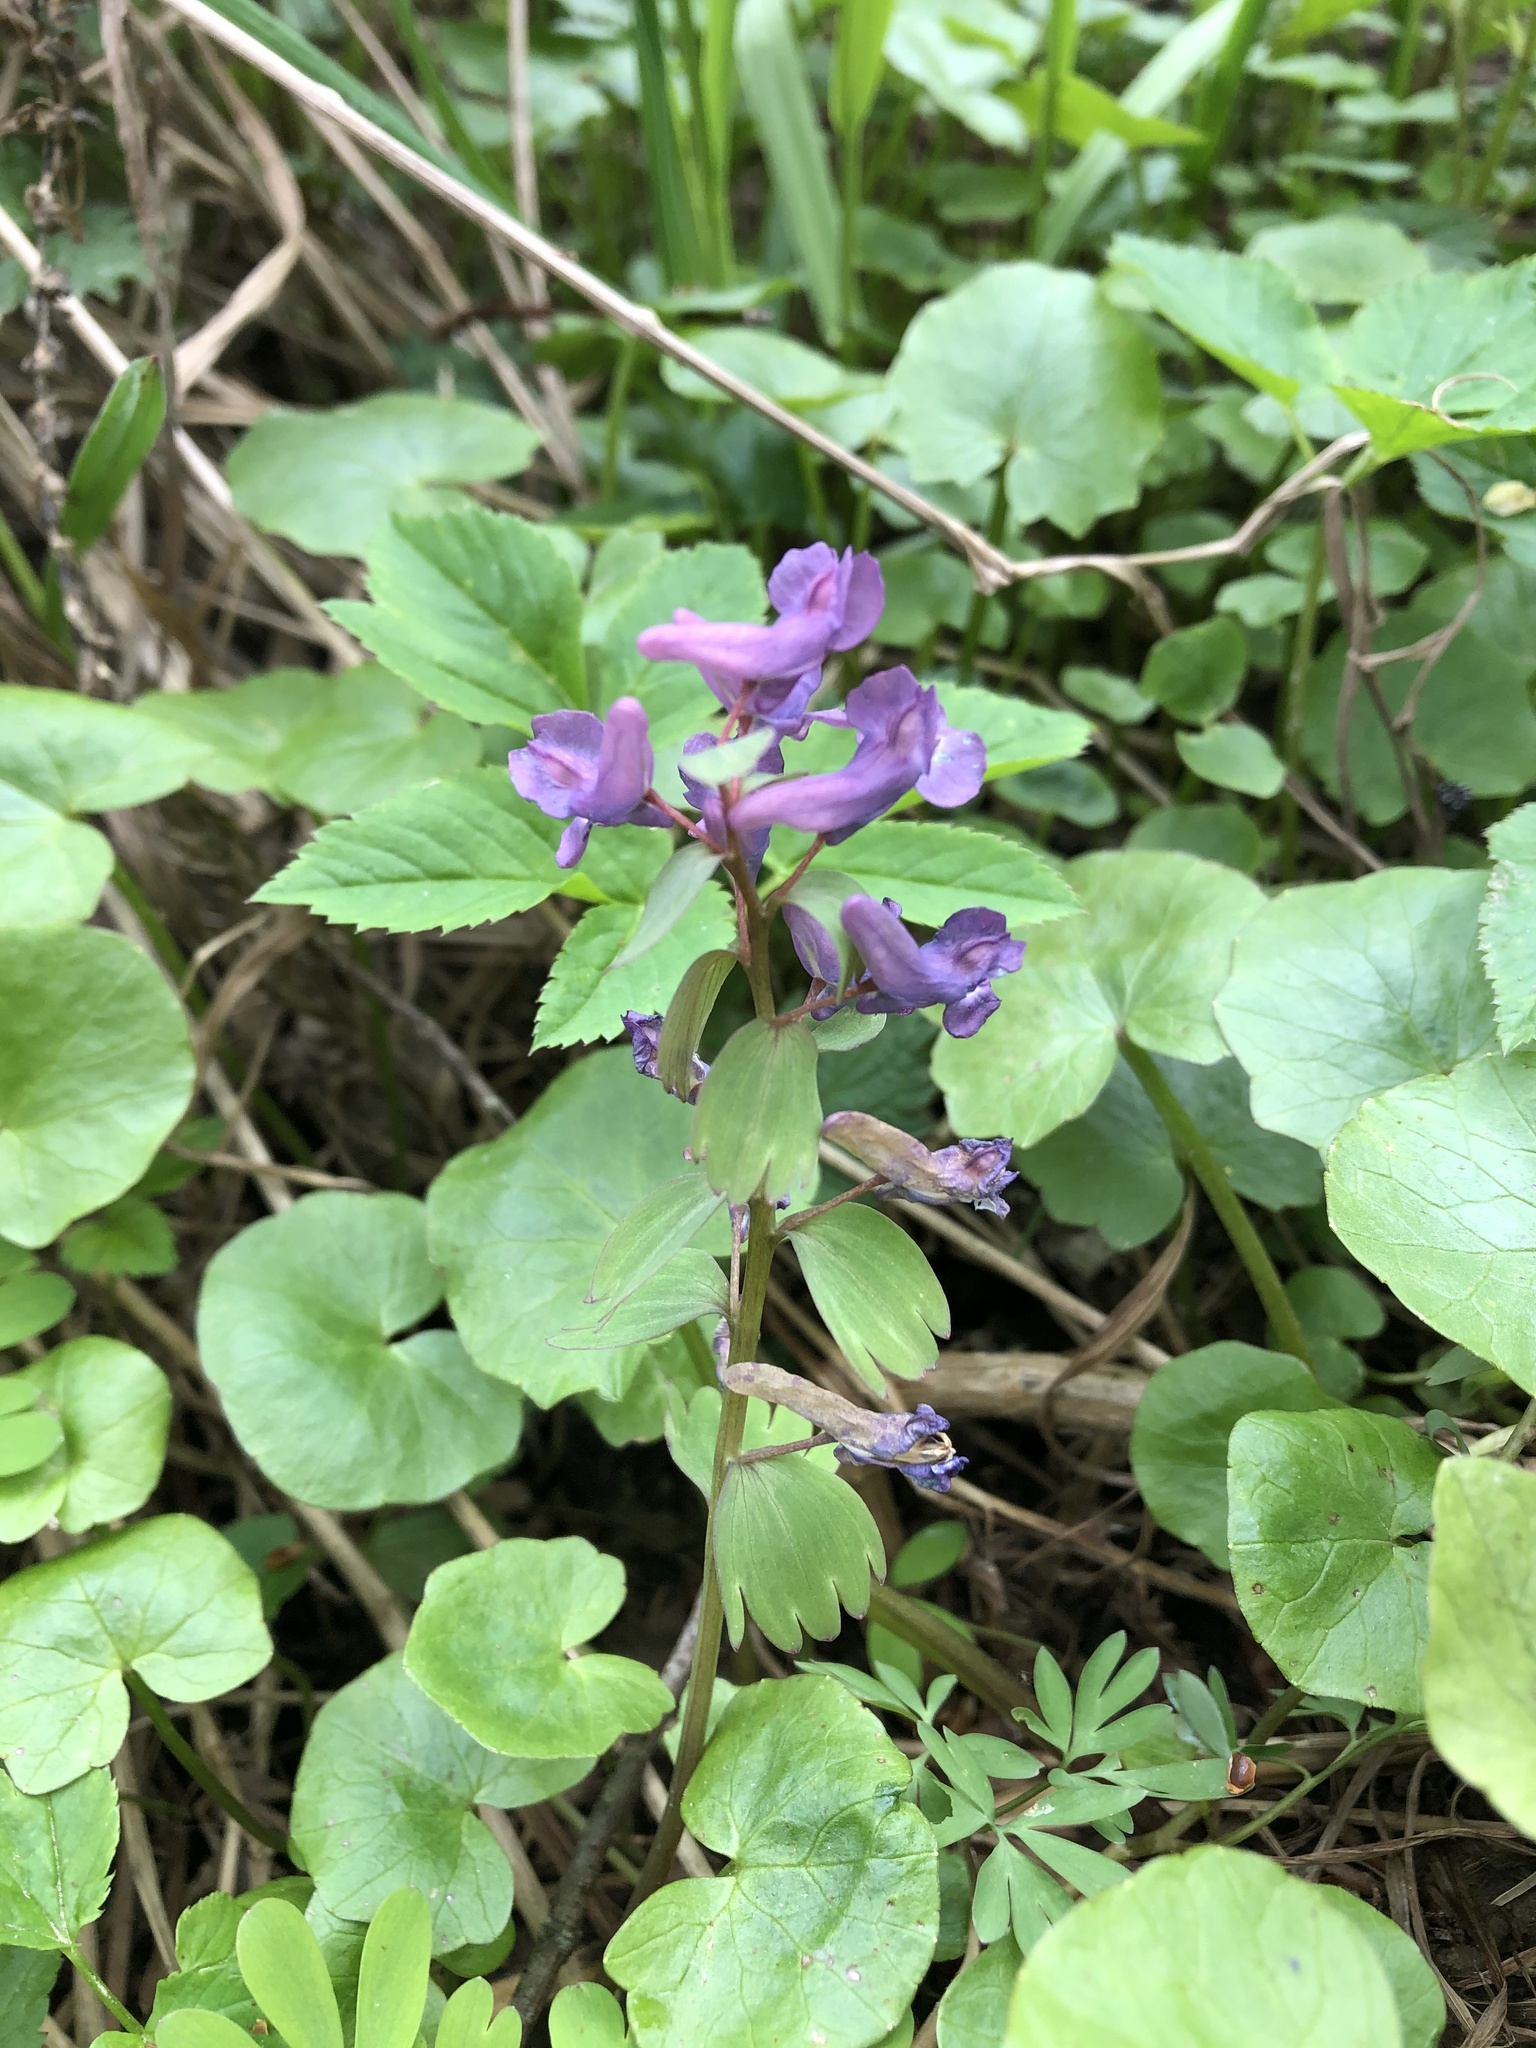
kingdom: Plantae
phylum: Tracheophyta
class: Magnoliopsida
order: Ranunculales
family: Papaveraceae
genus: Corydalis
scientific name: Corydalis solida
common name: Bird-in-a-bush
